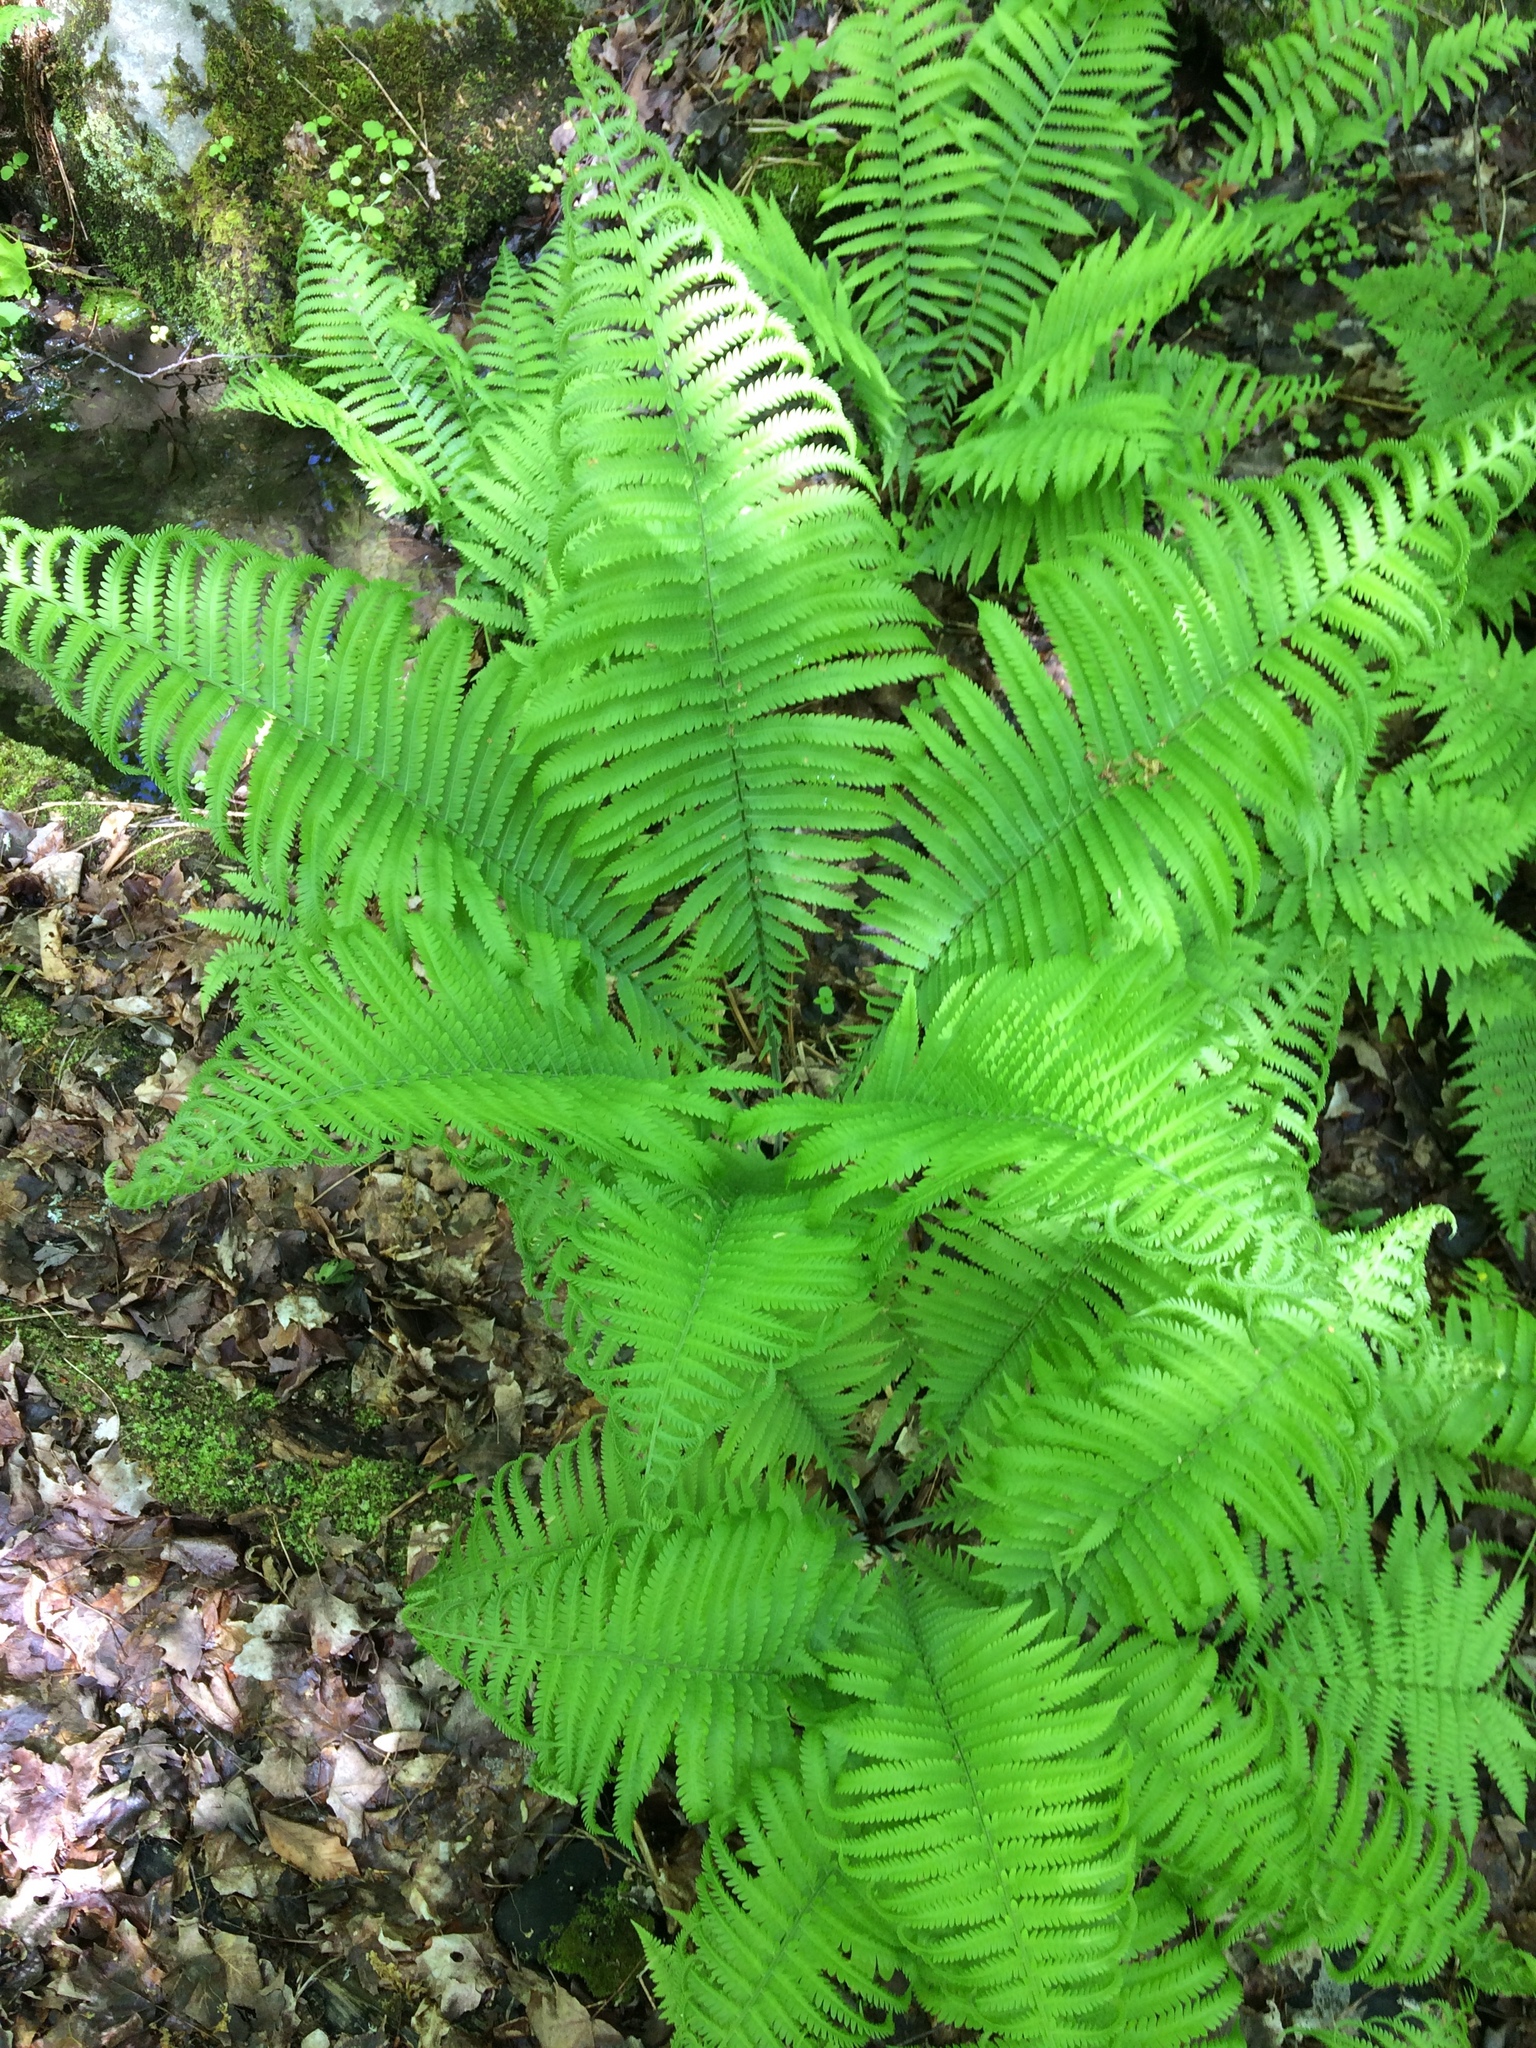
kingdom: Plantae
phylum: Tracheophyta
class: Polypodiopsida
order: Polypodiales
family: Onocleaceae
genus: Matteuccia
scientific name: Matteuccia struthiopteris
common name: Ostrich fern
